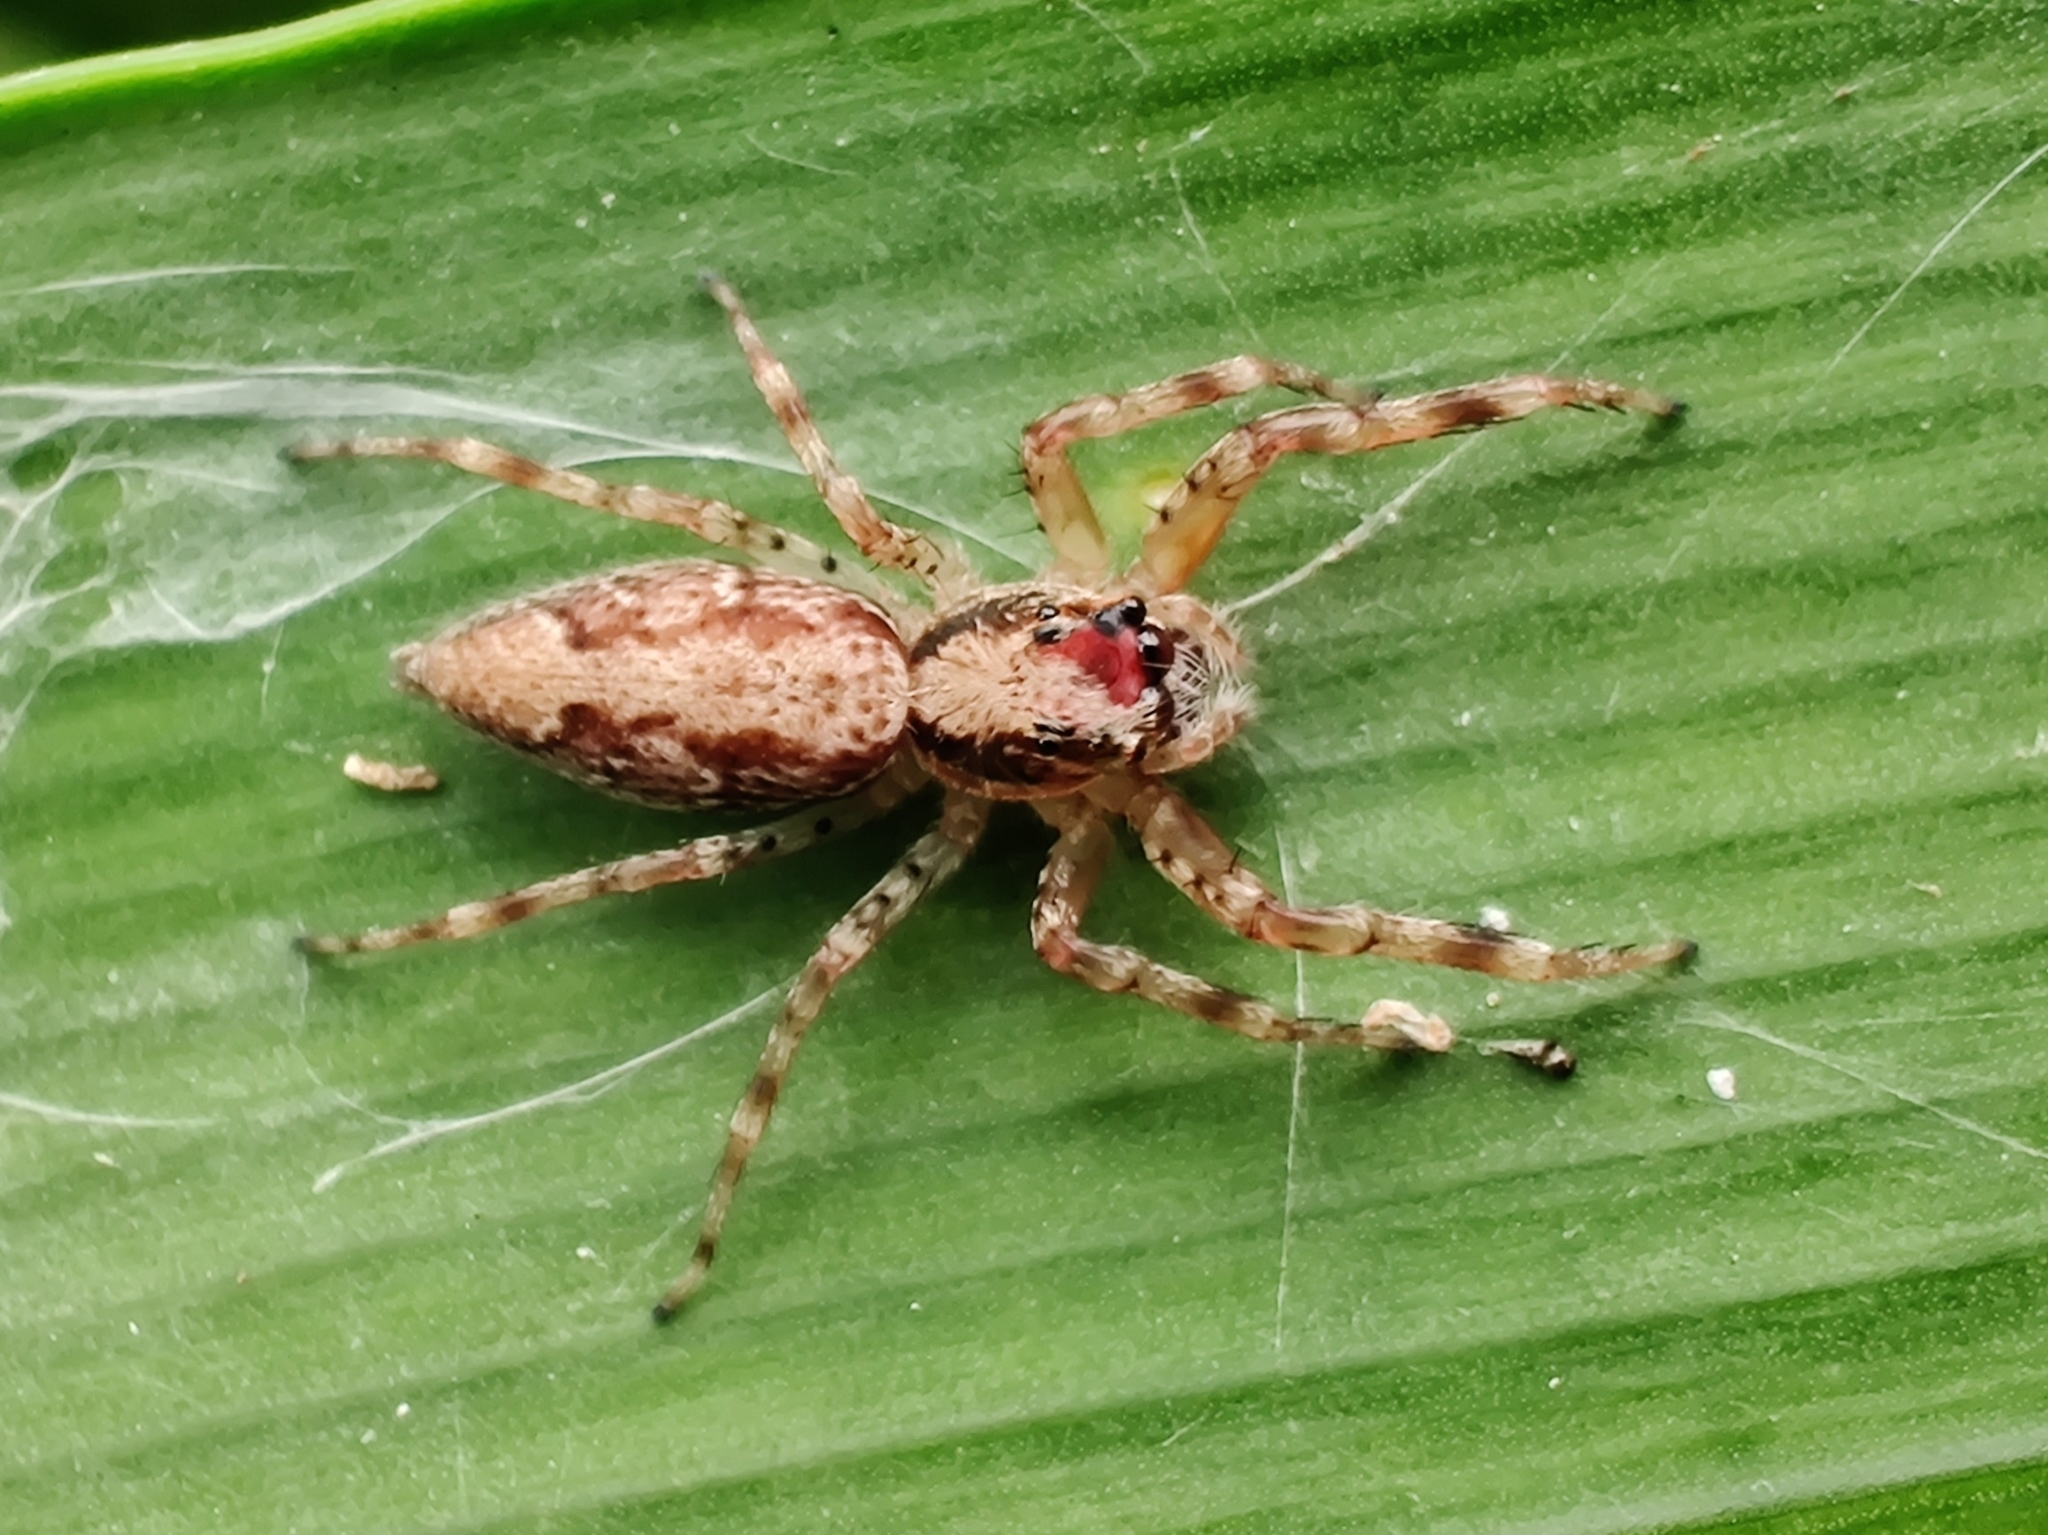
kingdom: Animalia
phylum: Arthropoda
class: Arachnida
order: Araneae
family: Salticidae
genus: Helpis
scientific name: Helpis minitabunda
